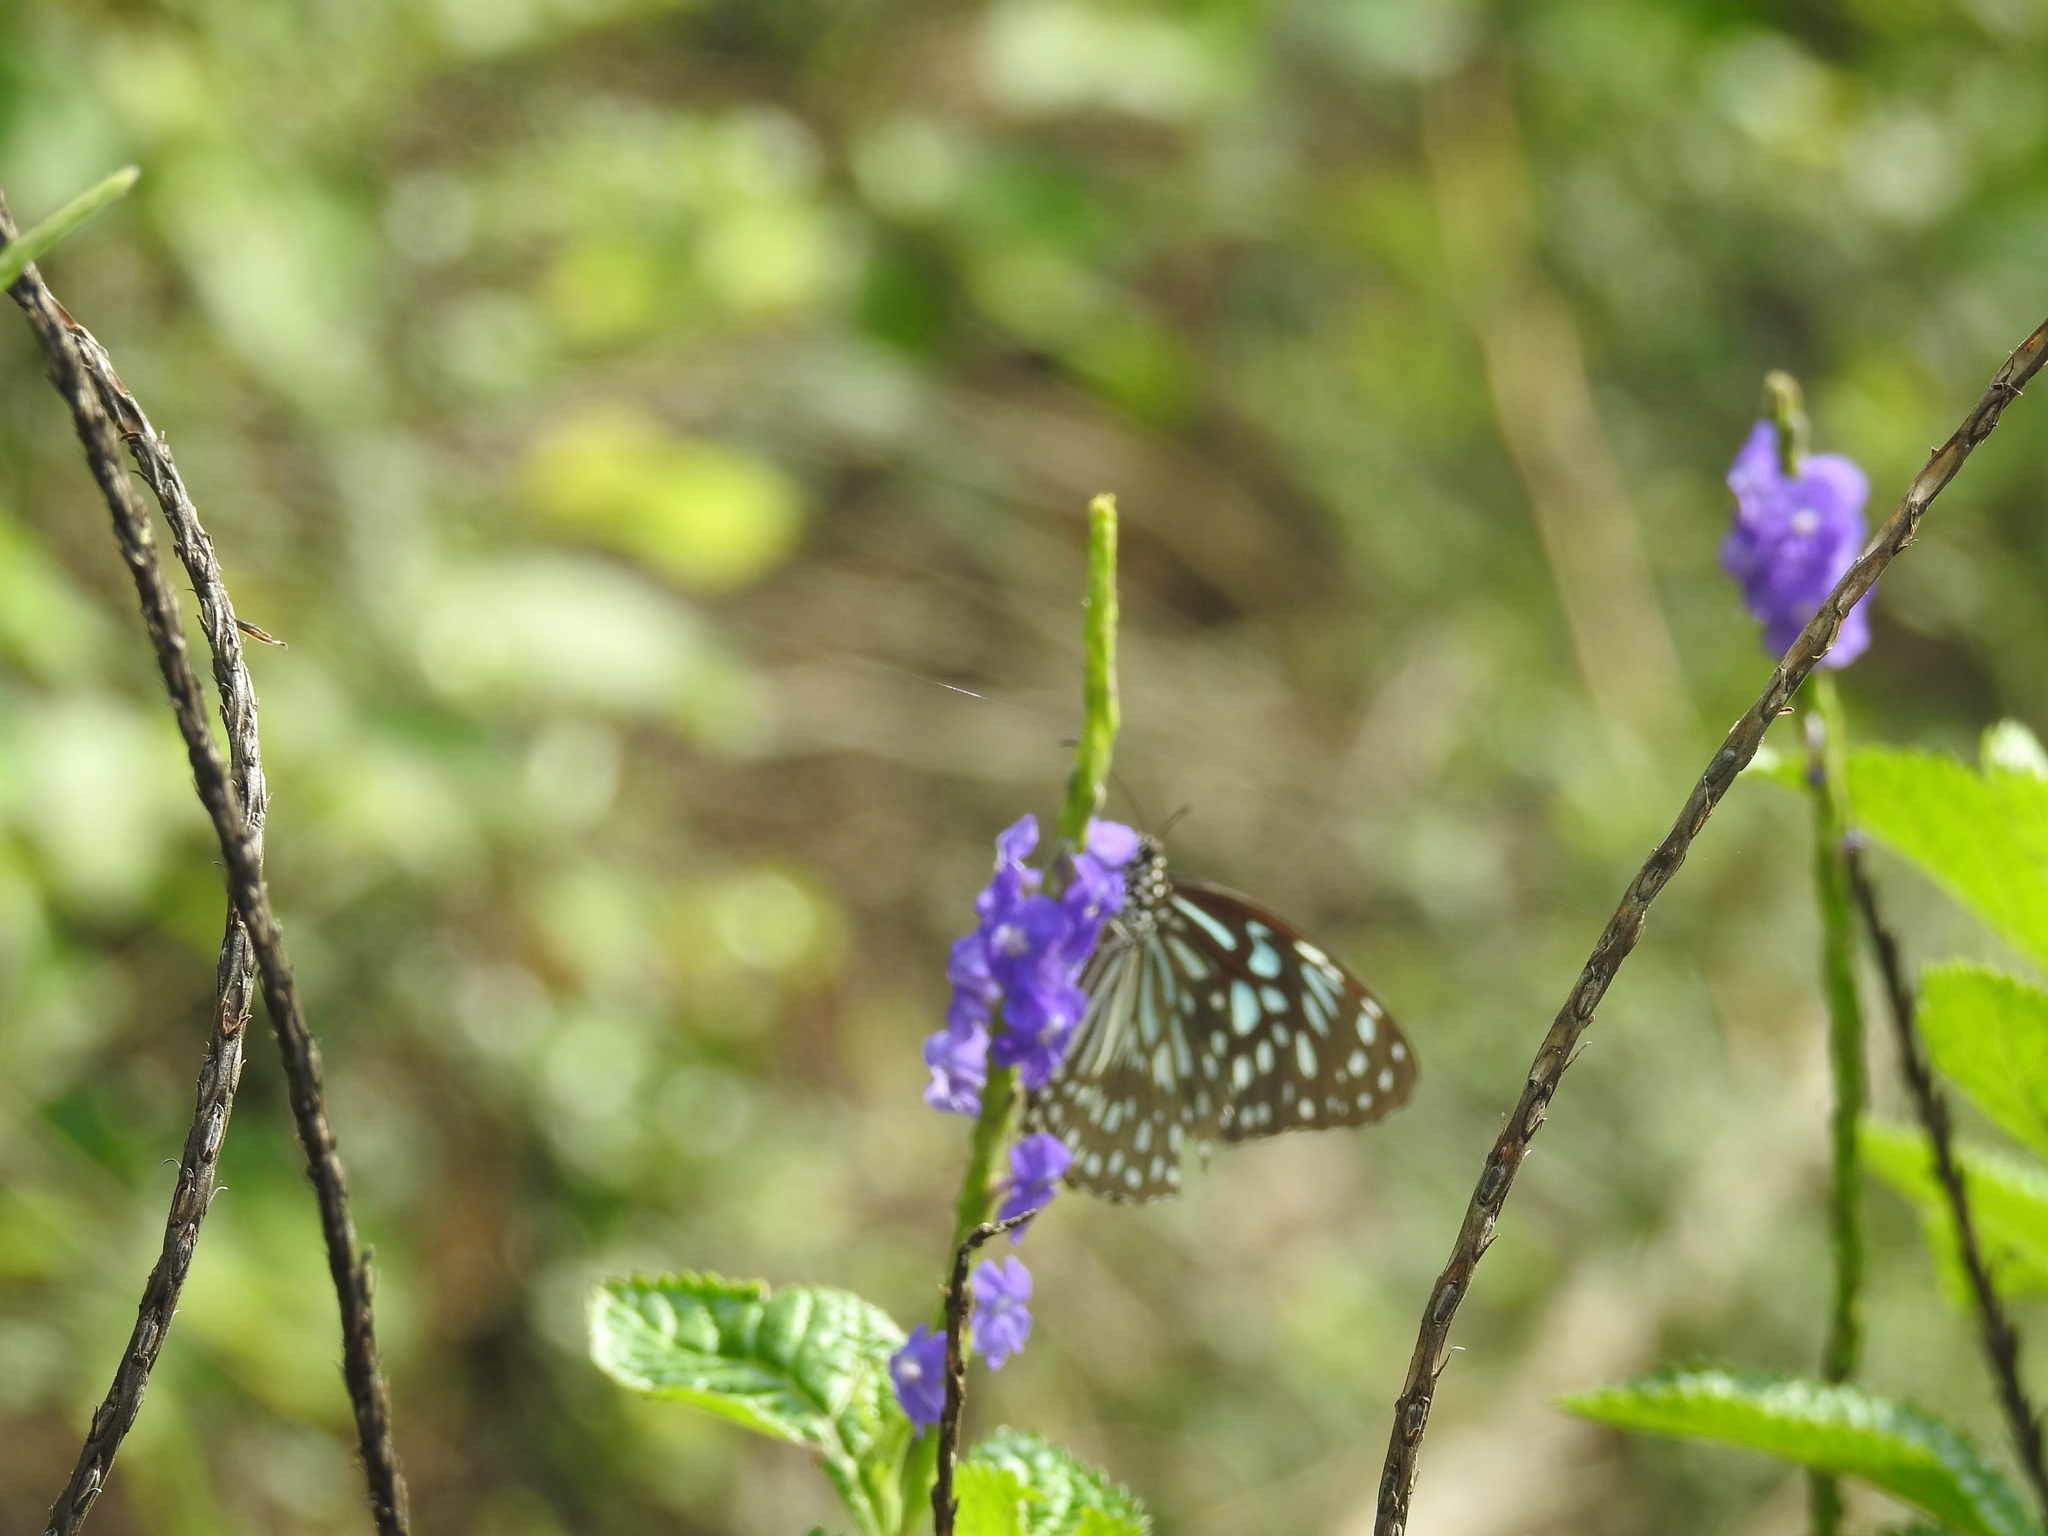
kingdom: Animalia
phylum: Arthropoda
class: Insecta
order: Lepidoptera
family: Nymphalidae
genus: Tirumala
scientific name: Tirumala septentrionis
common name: Dark blue tiger butterfly
